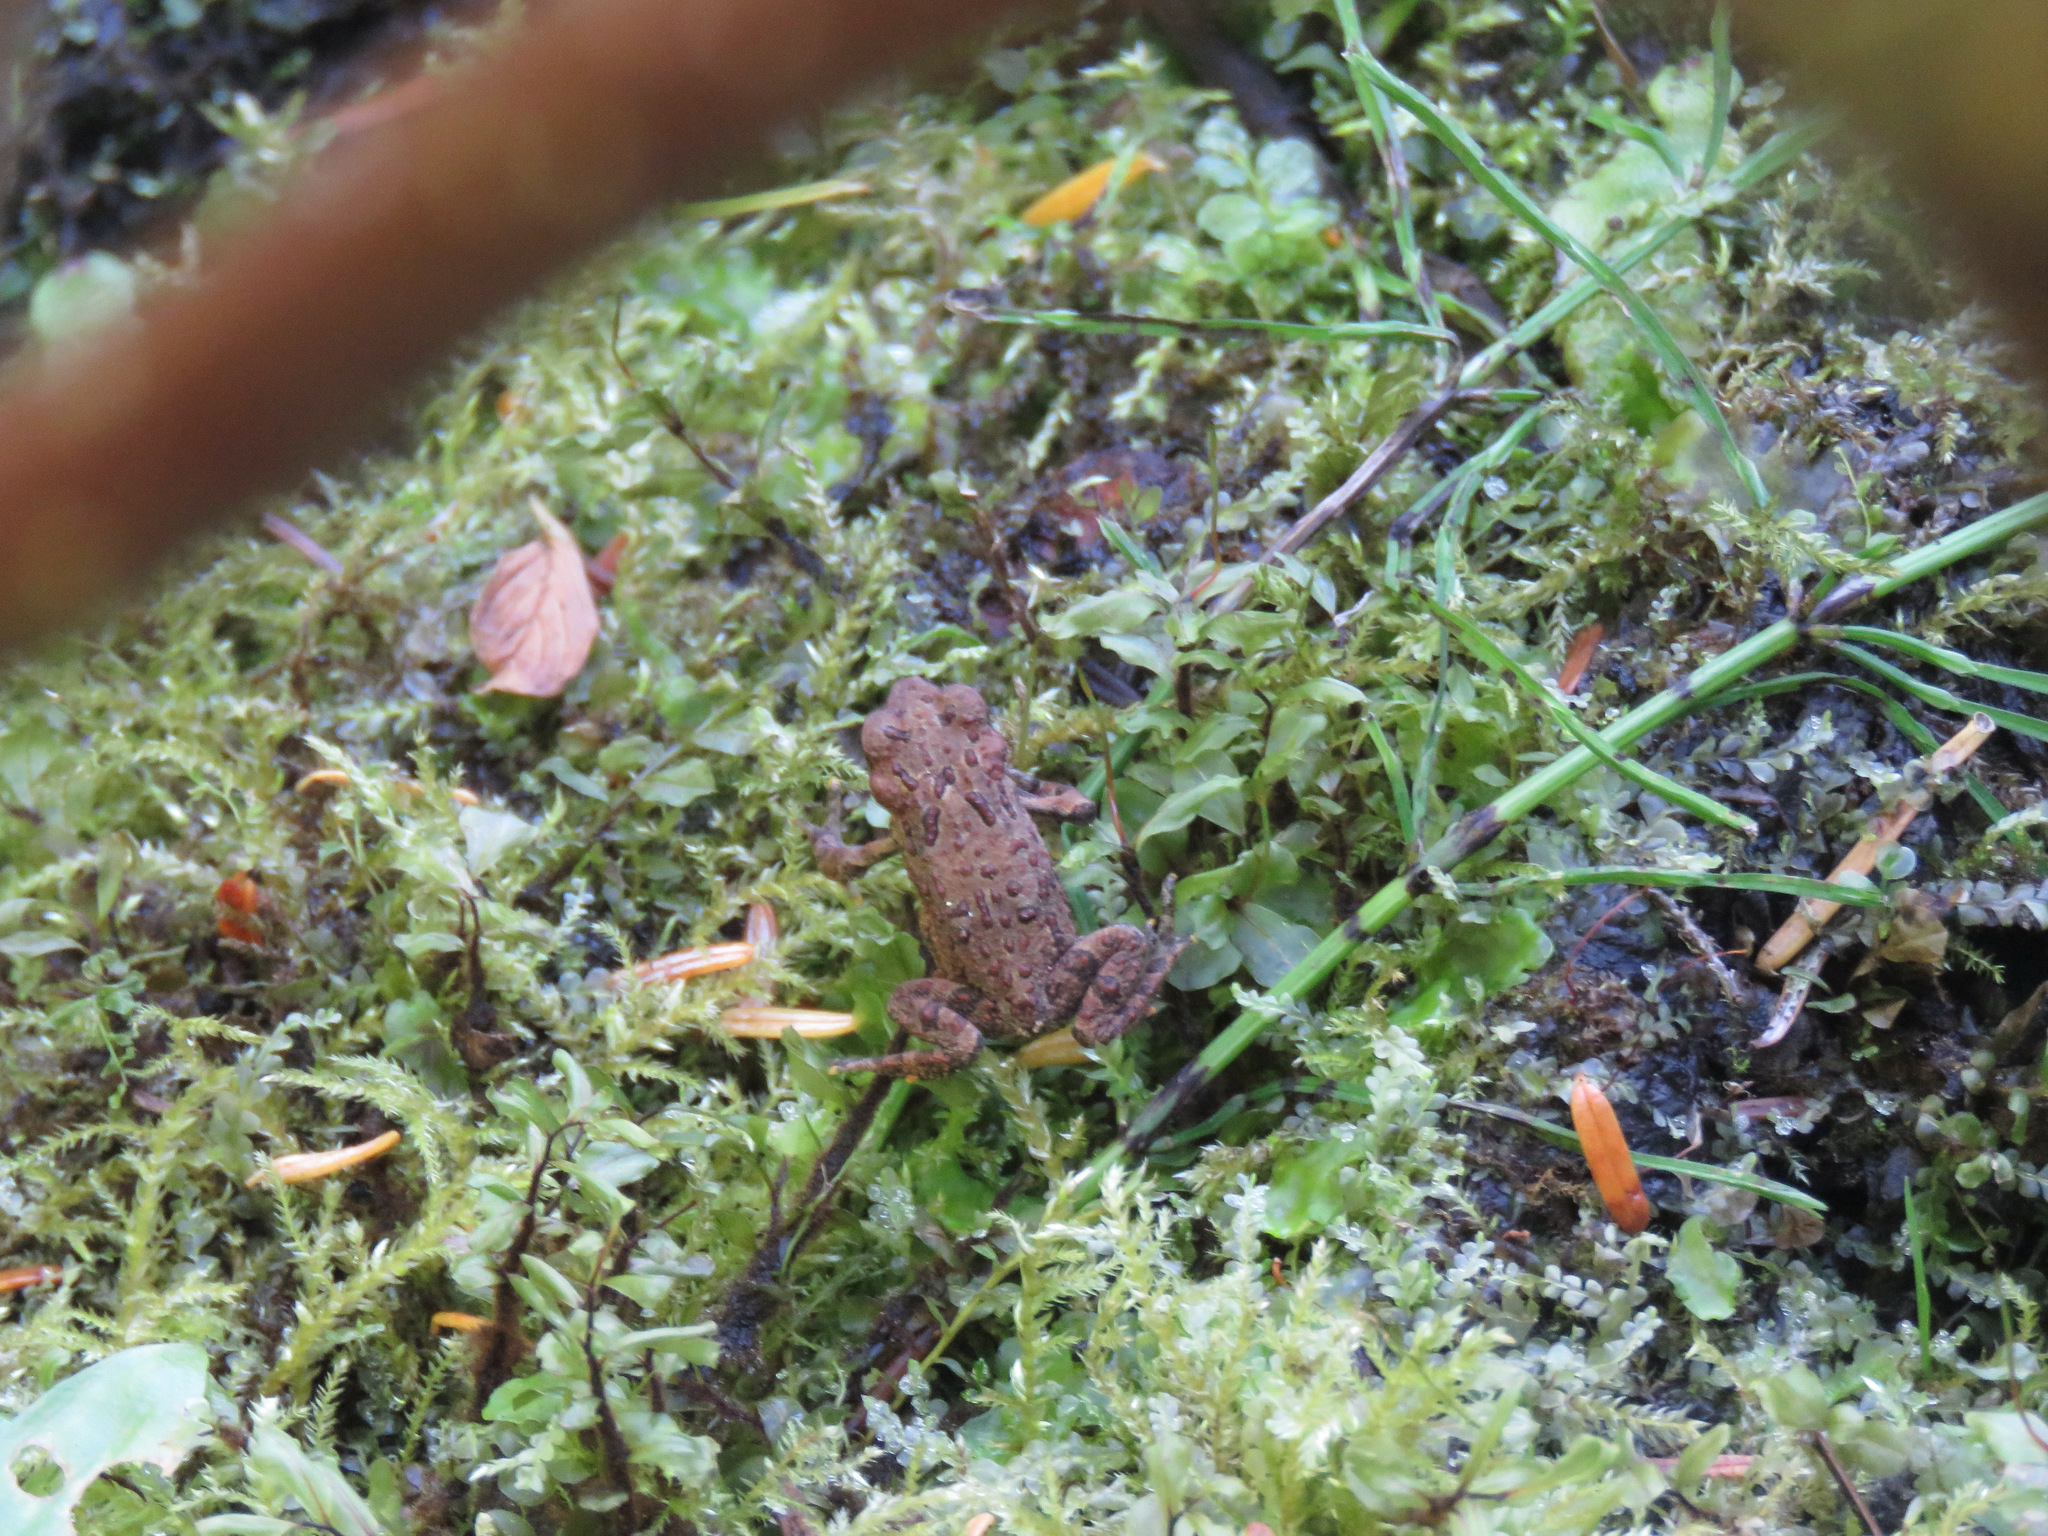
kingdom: Animalia
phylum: Chordata
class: Amphibia
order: Anura
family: Bufonidae
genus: Anaxyrus
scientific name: Anaxyrus boreas
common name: Western toad
